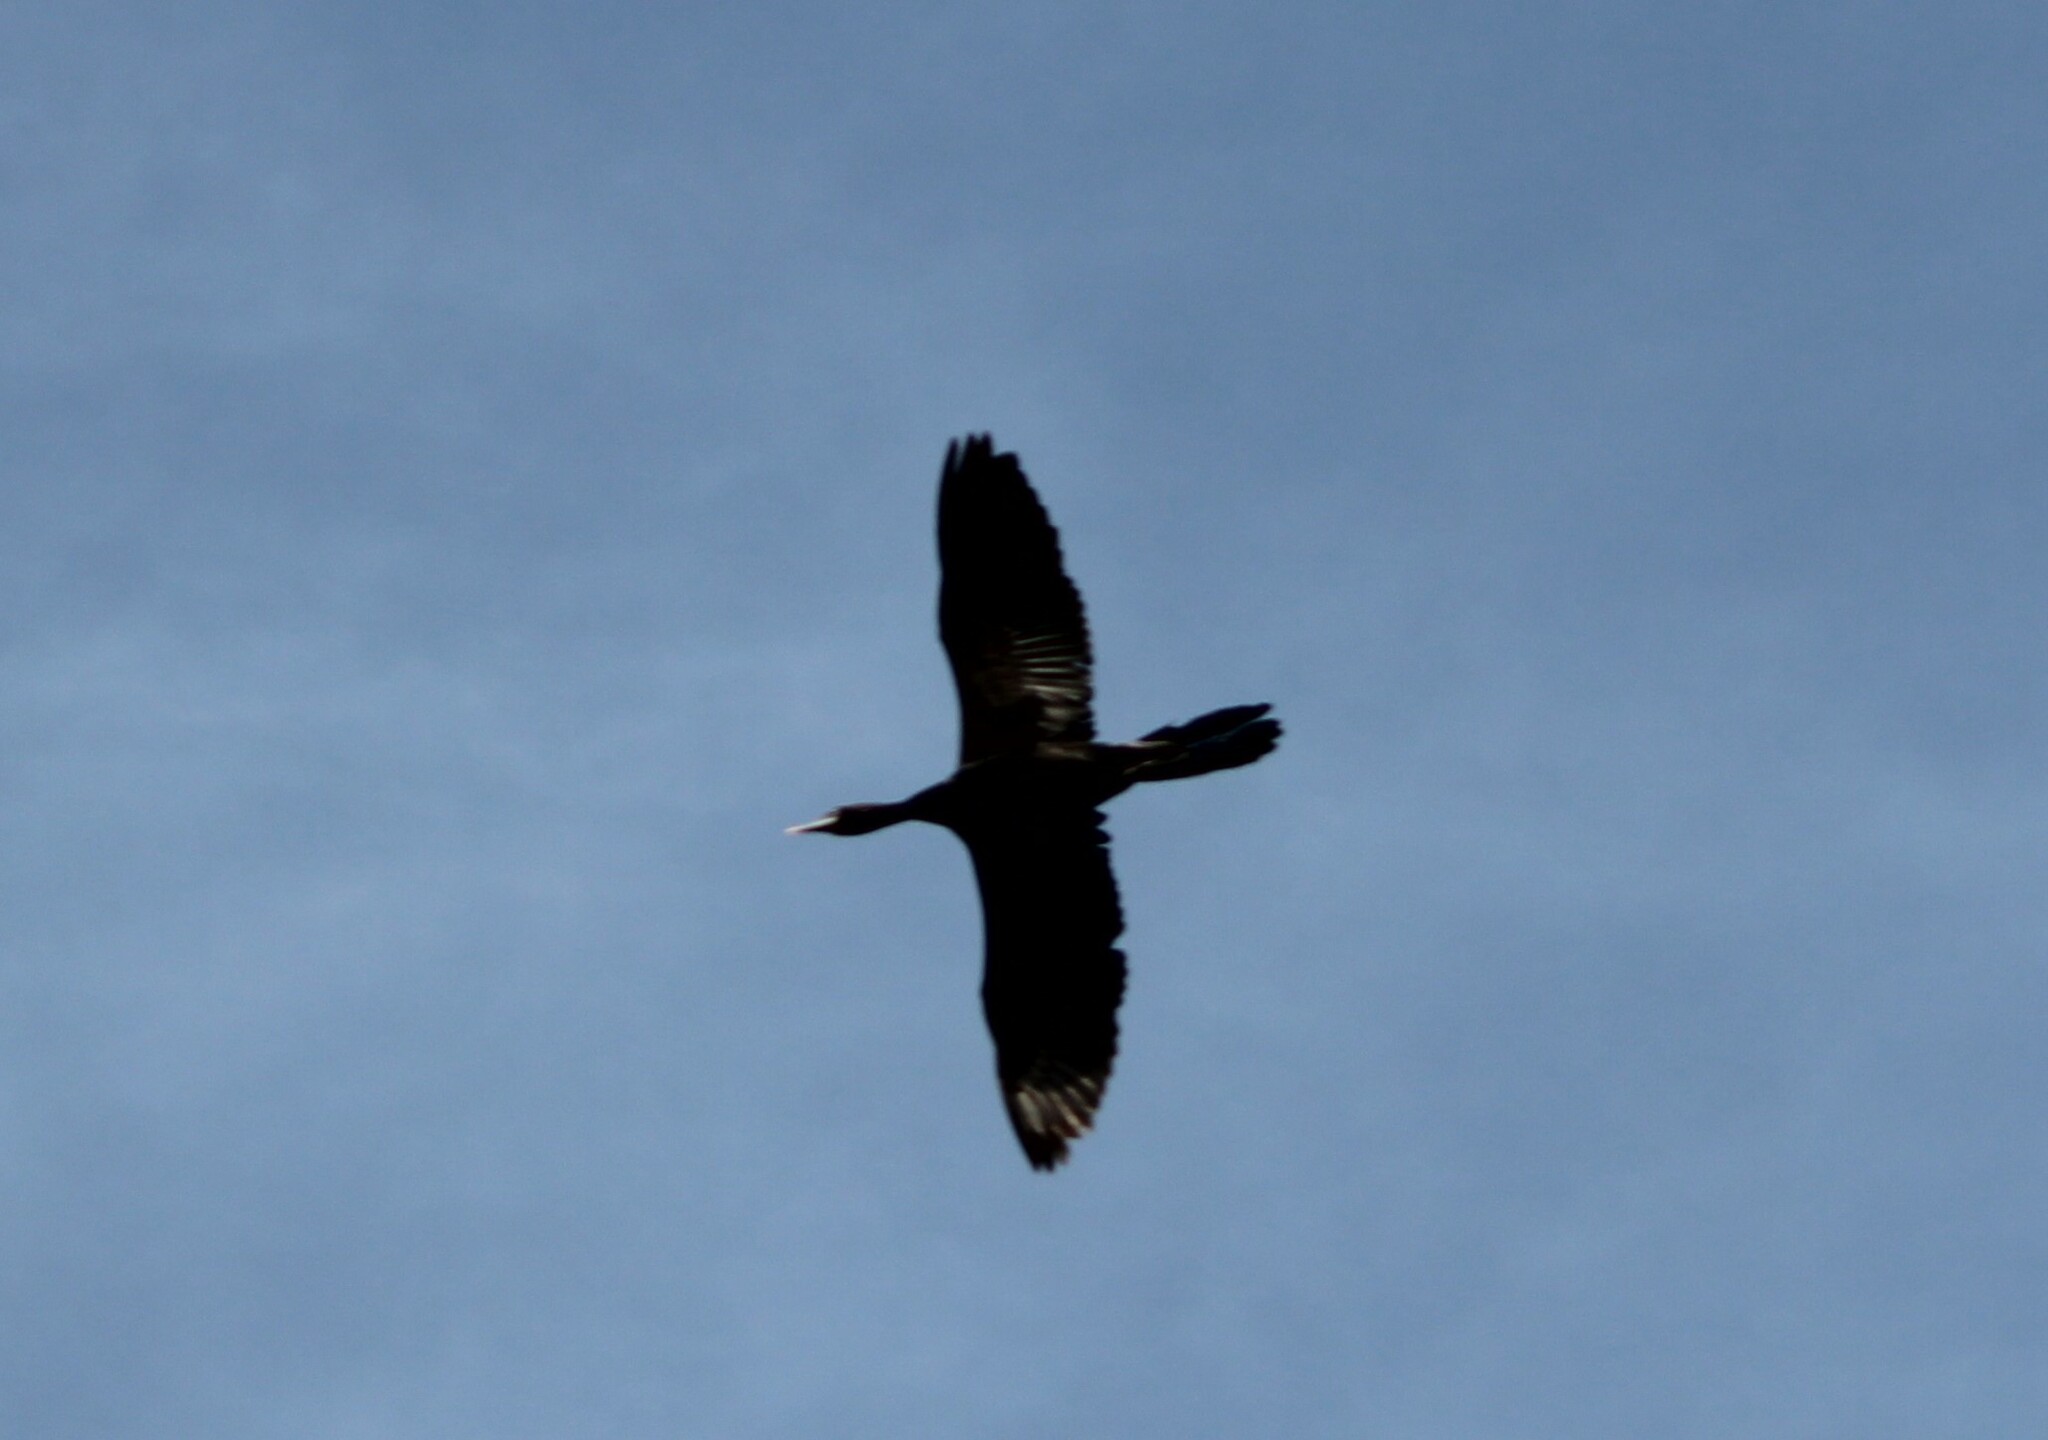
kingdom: Animalia
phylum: Chordata
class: Aves
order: Suliformes
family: Phalacrocoracidae
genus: Microcarbo
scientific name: Microcarbo niger
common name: Little cormorant
